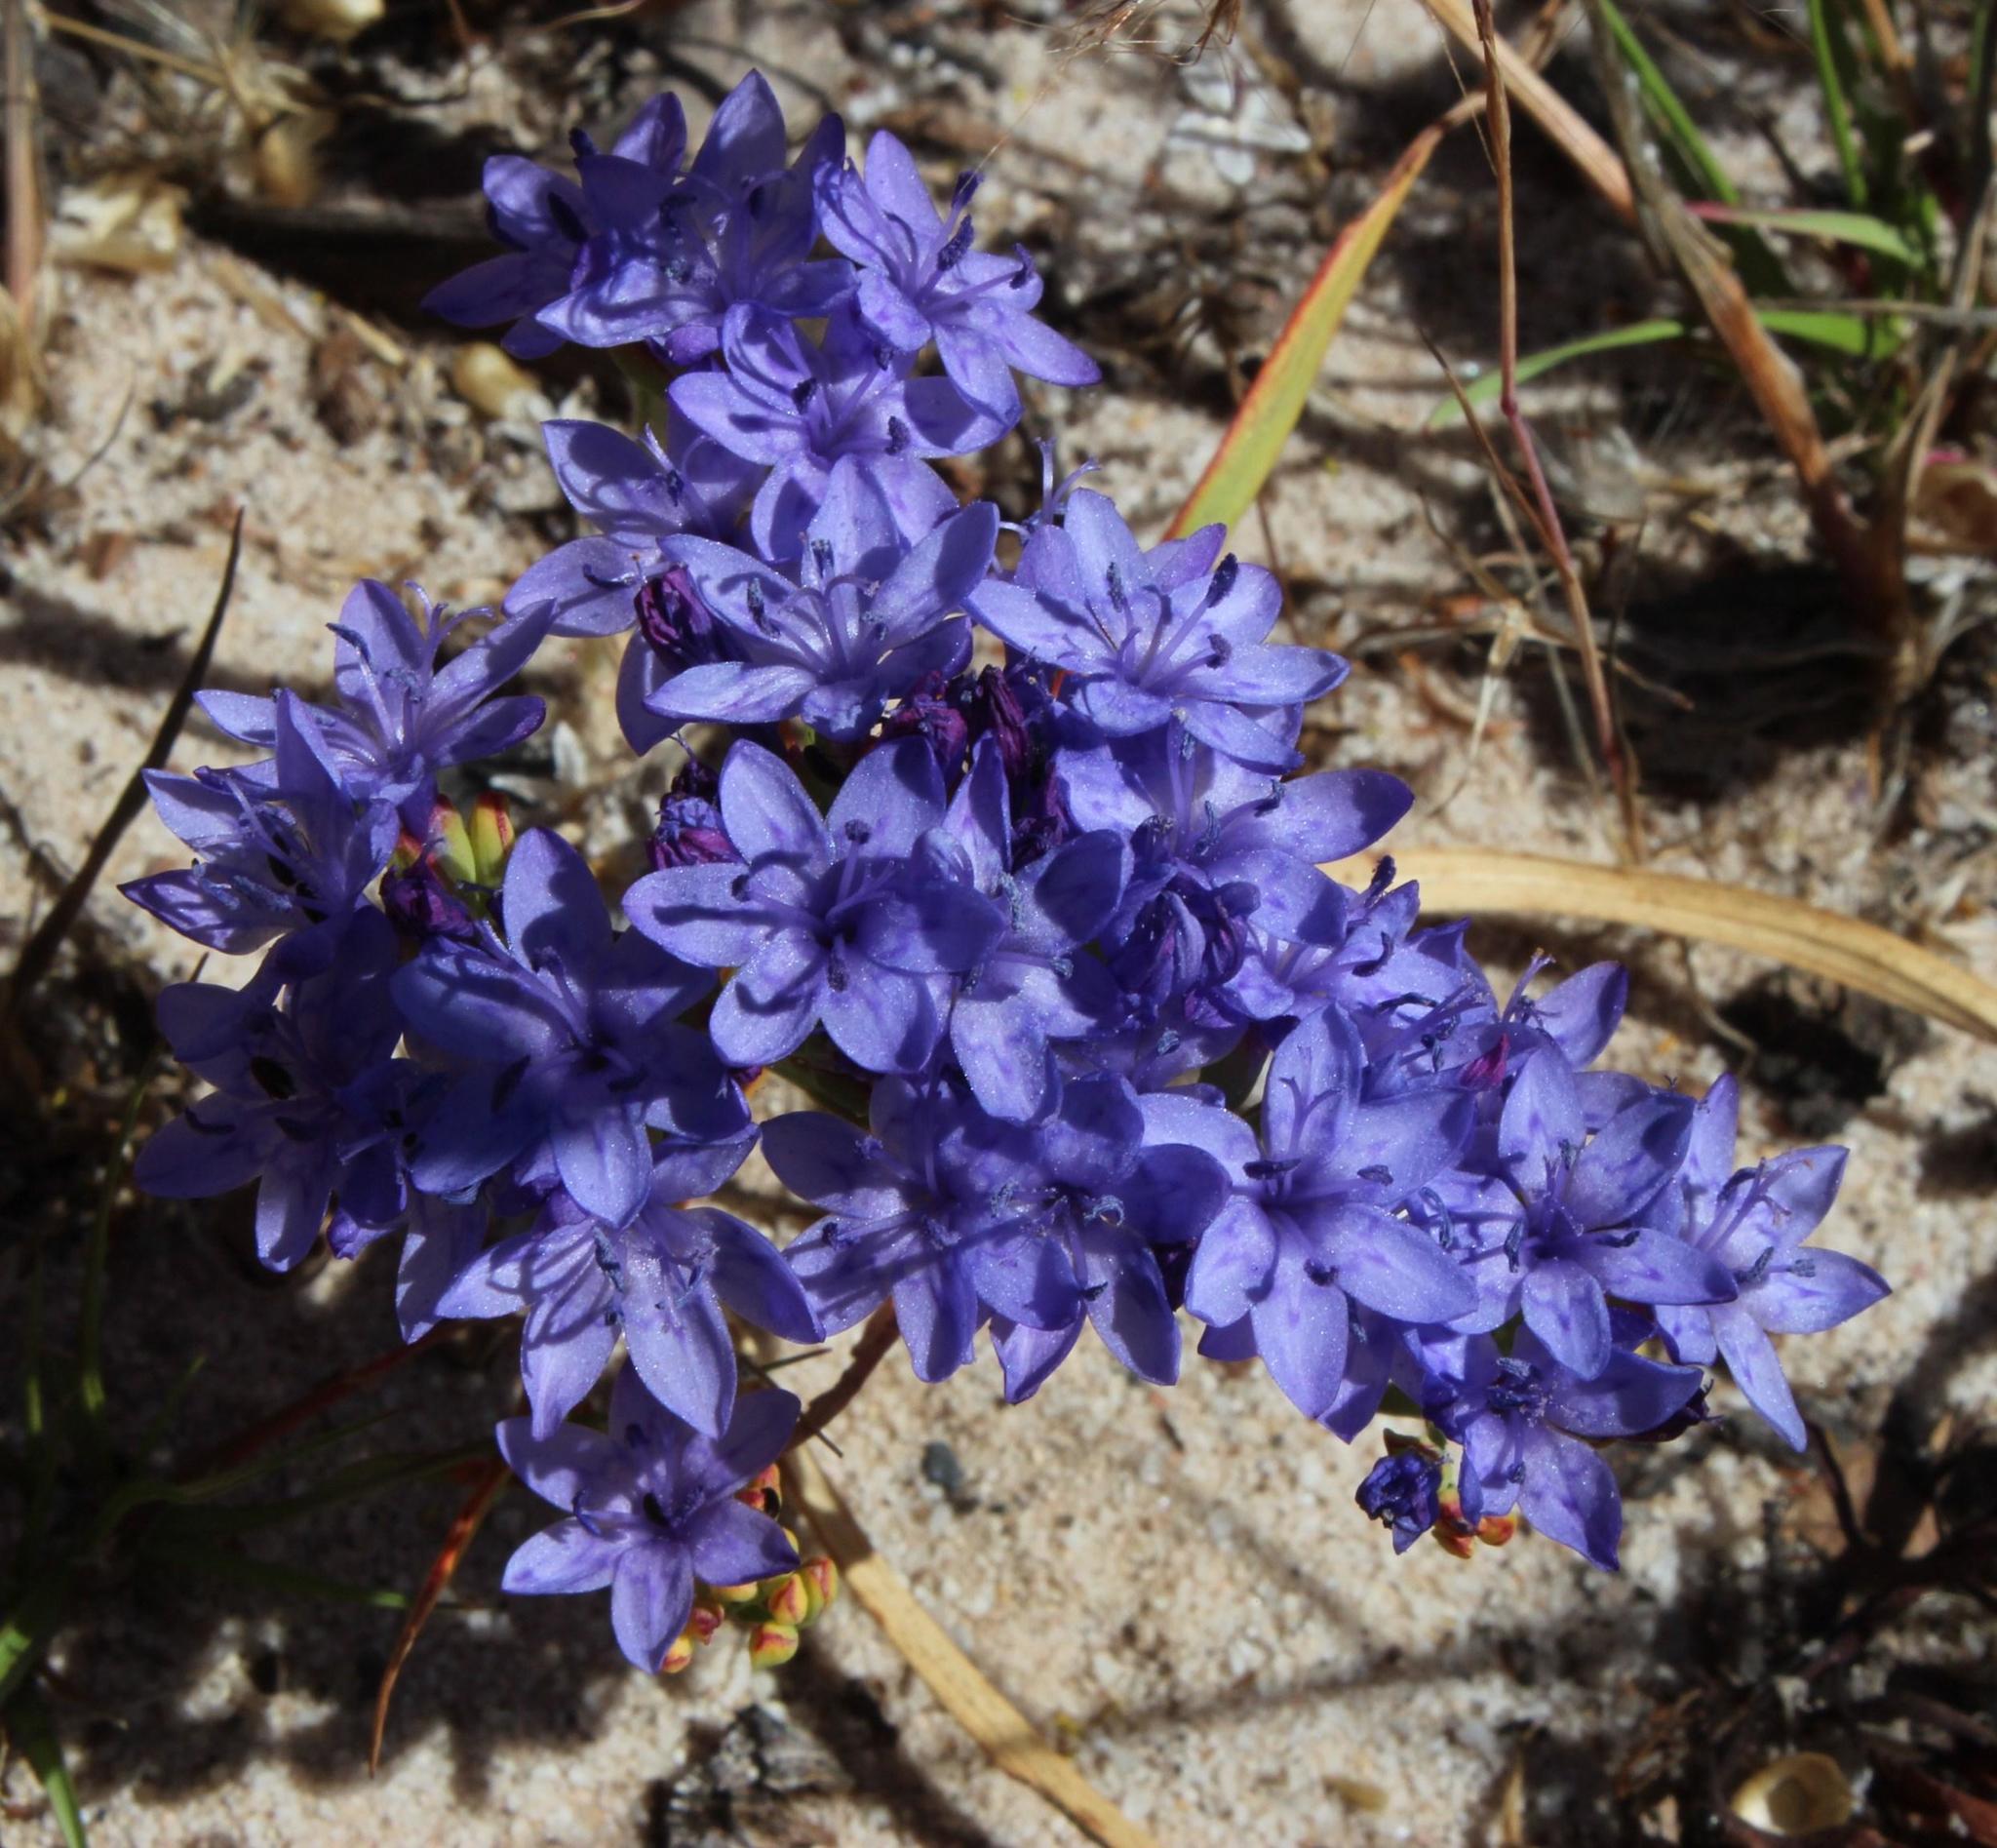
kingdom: Plantae
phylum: Tracheophyta
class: Liliopsida
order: Asparagales
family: Iridaceae
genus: Codonorhiza
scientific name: Codonorhiza corymbosa
